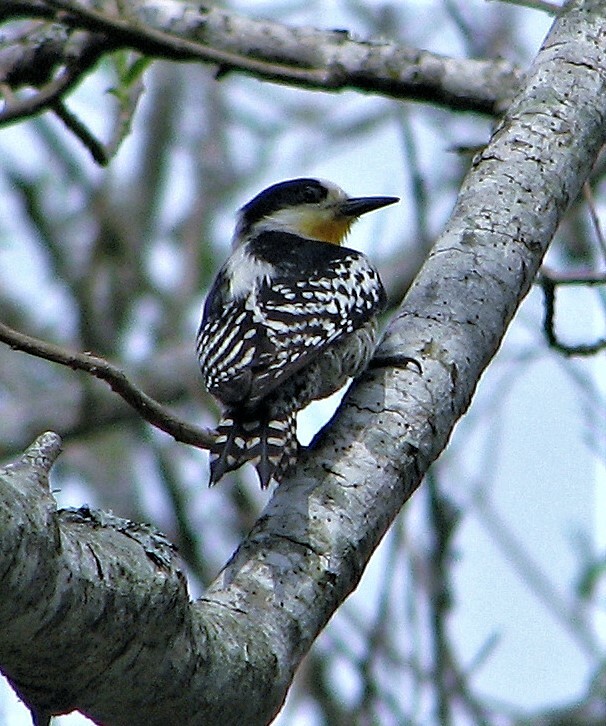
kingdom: Animalia
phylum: Chordata
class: Aves
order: Piciformes
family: Picidae
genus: Melanerpes
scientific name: Melanerpes cactorum
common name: White-fronted woodpecker
